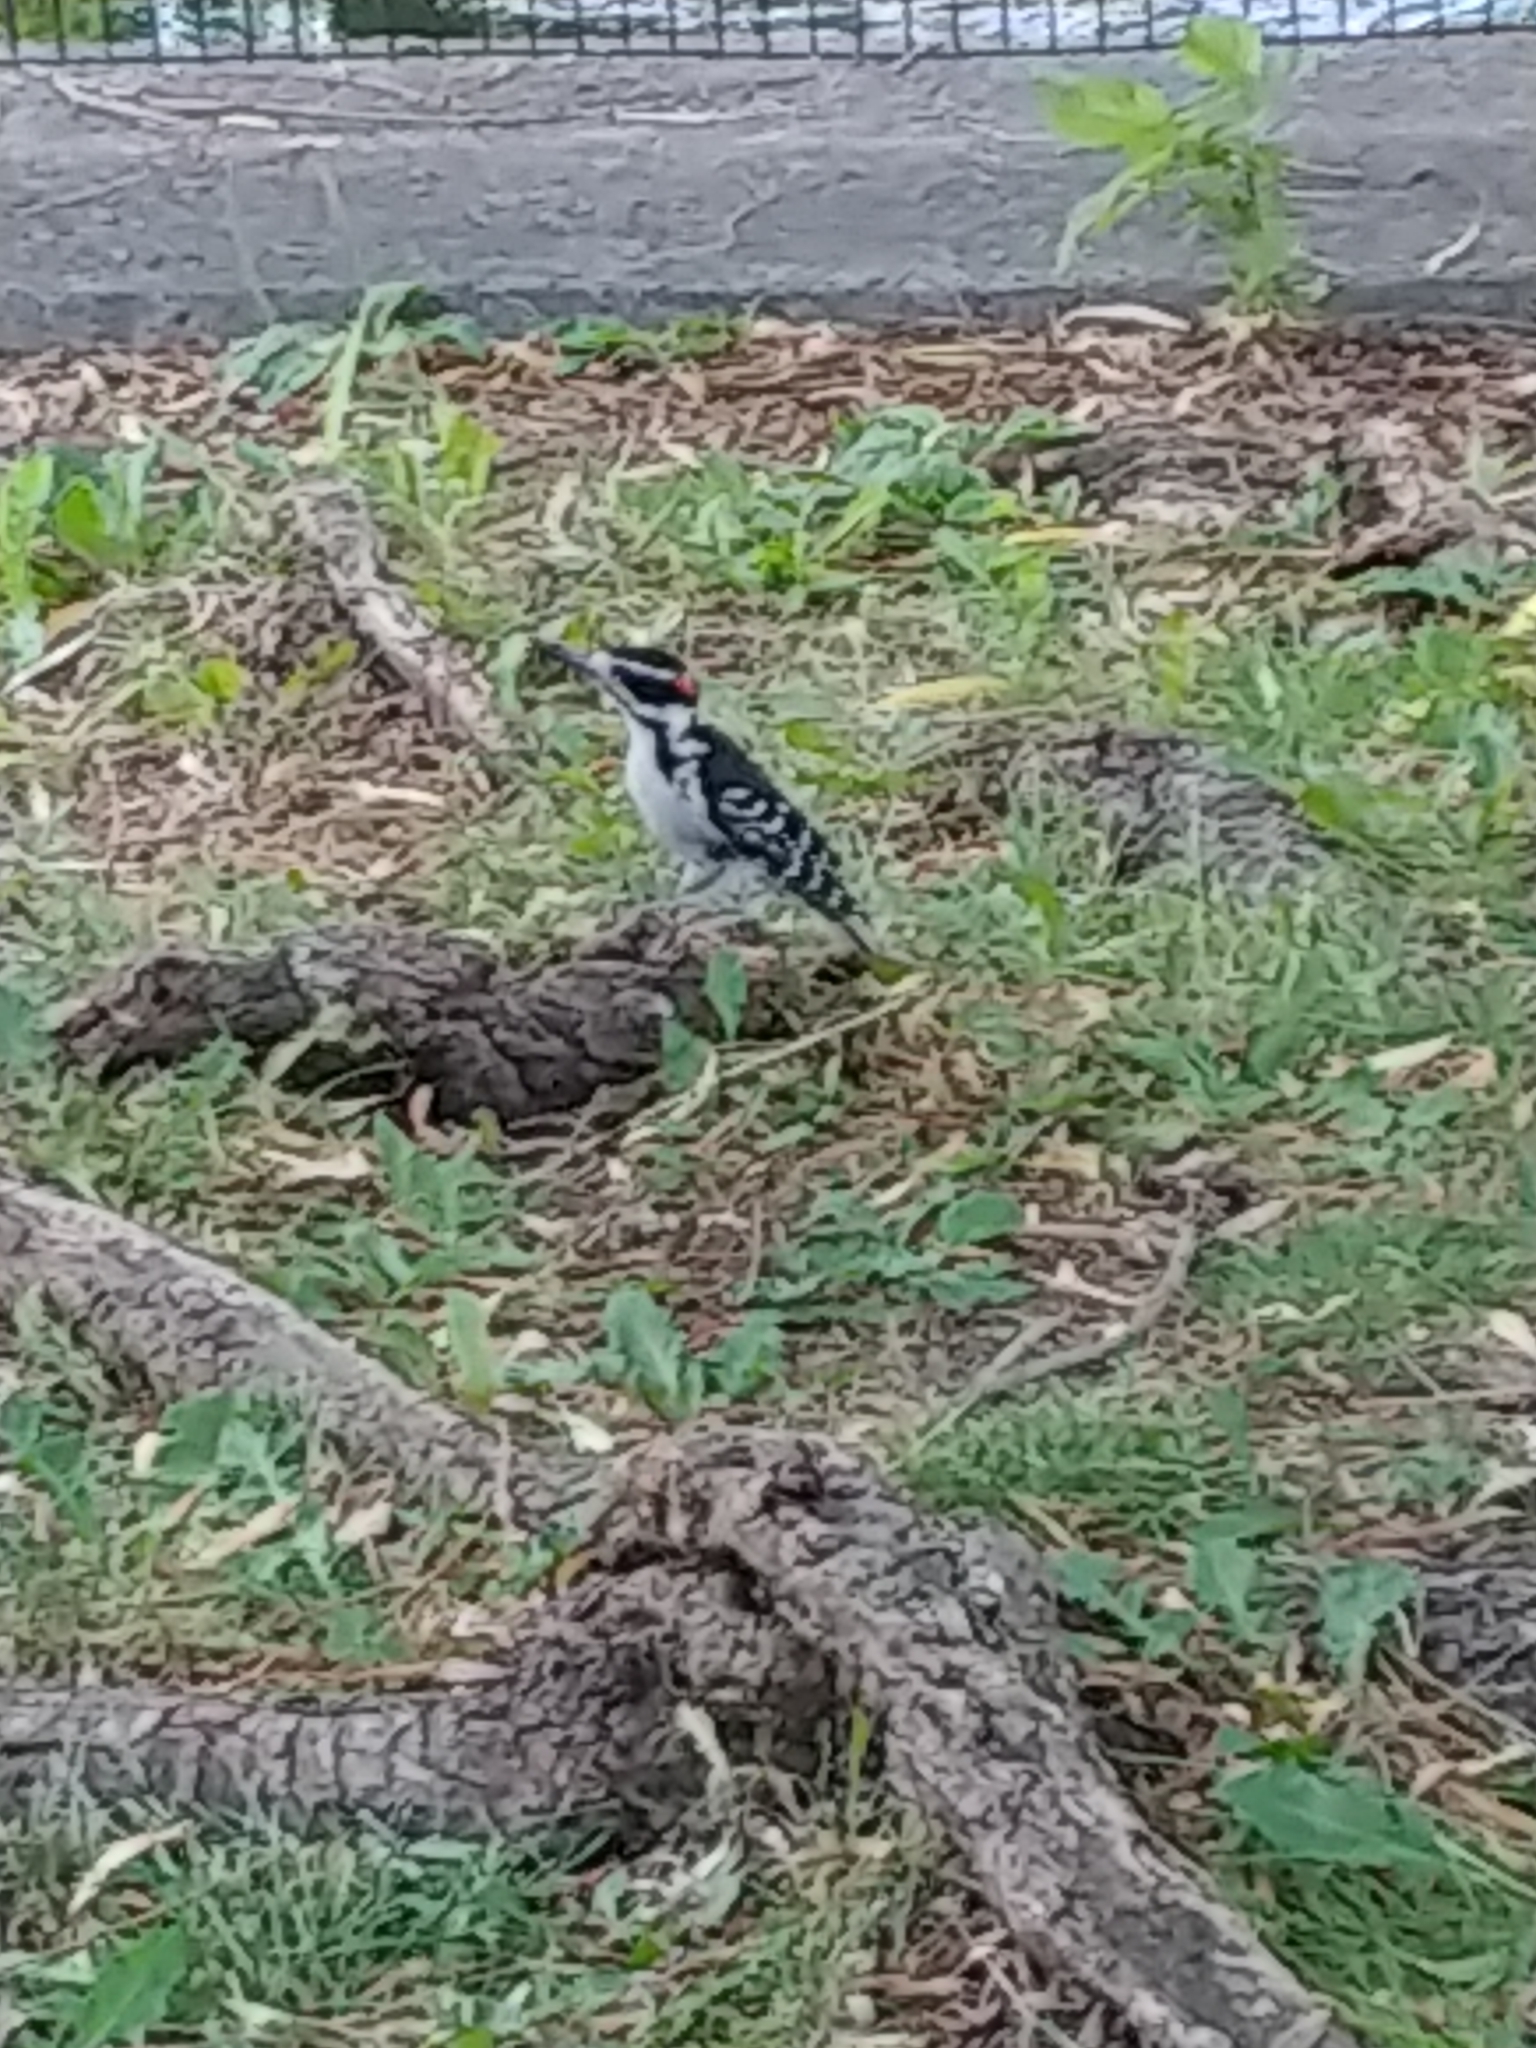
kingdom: Animalia
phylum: Chordata
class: Aves
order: Piciformes
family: Picidae
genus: Leuconotopicus
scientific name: Leuconotopicus villosus
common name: Hairy woodpecker
